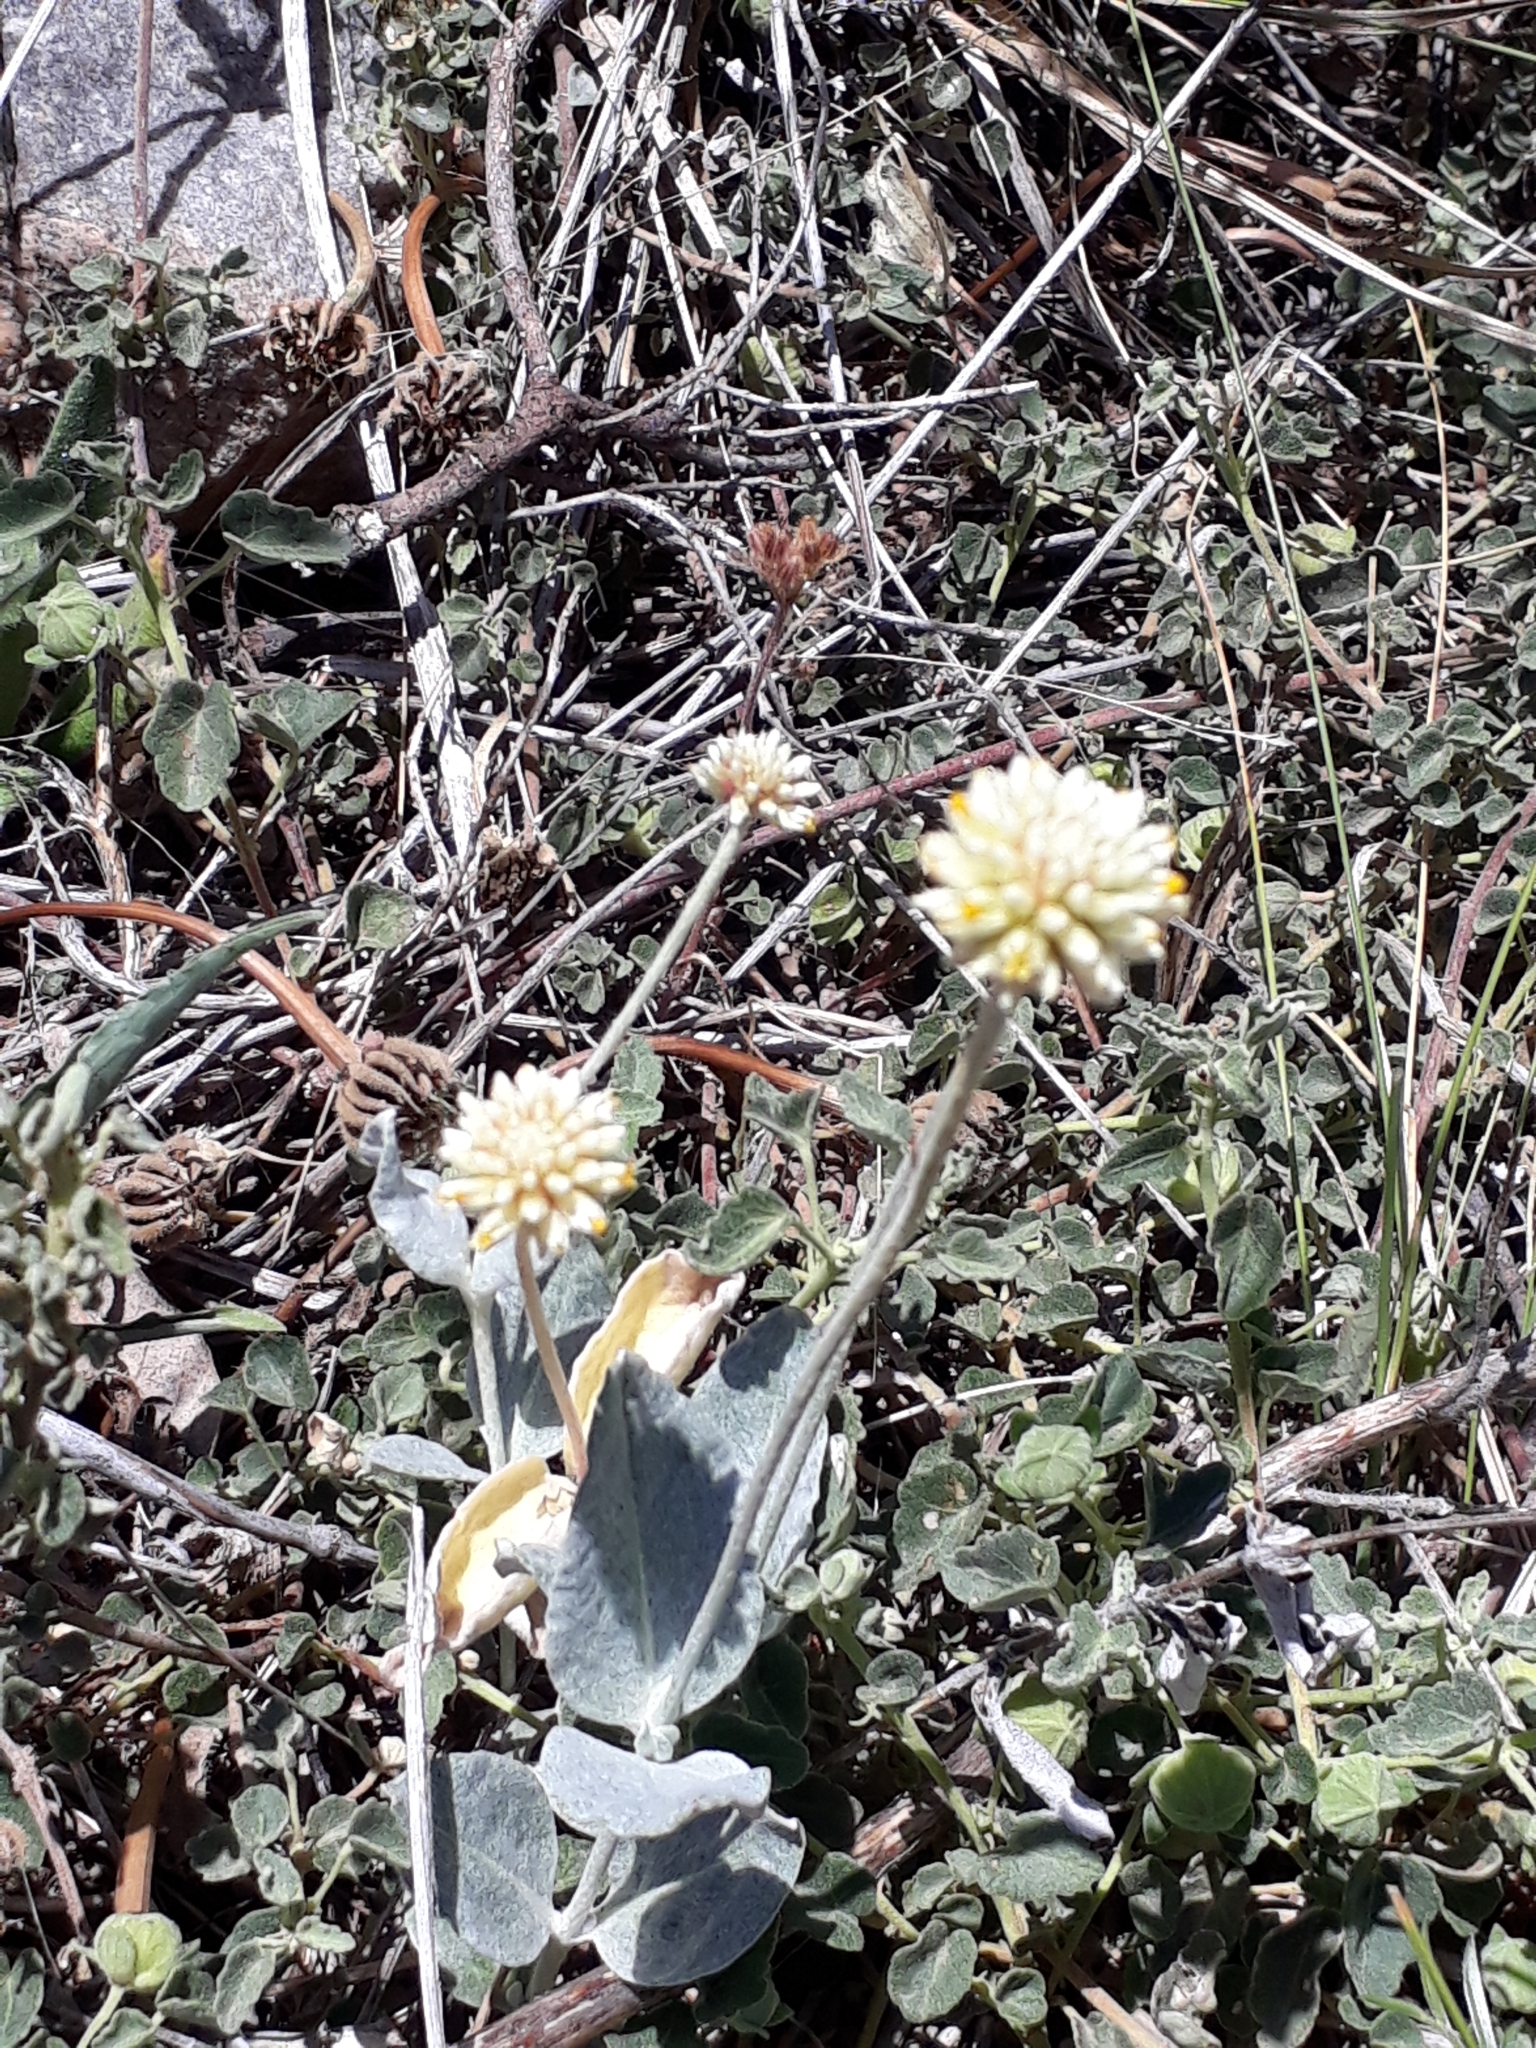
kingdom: Plantae
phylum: Tracheophyta
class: Magnoliopsida
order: Caryophyllales
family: Amaranthaceae
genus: Pfaffia
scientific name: Pfaffia gnaphalioides
